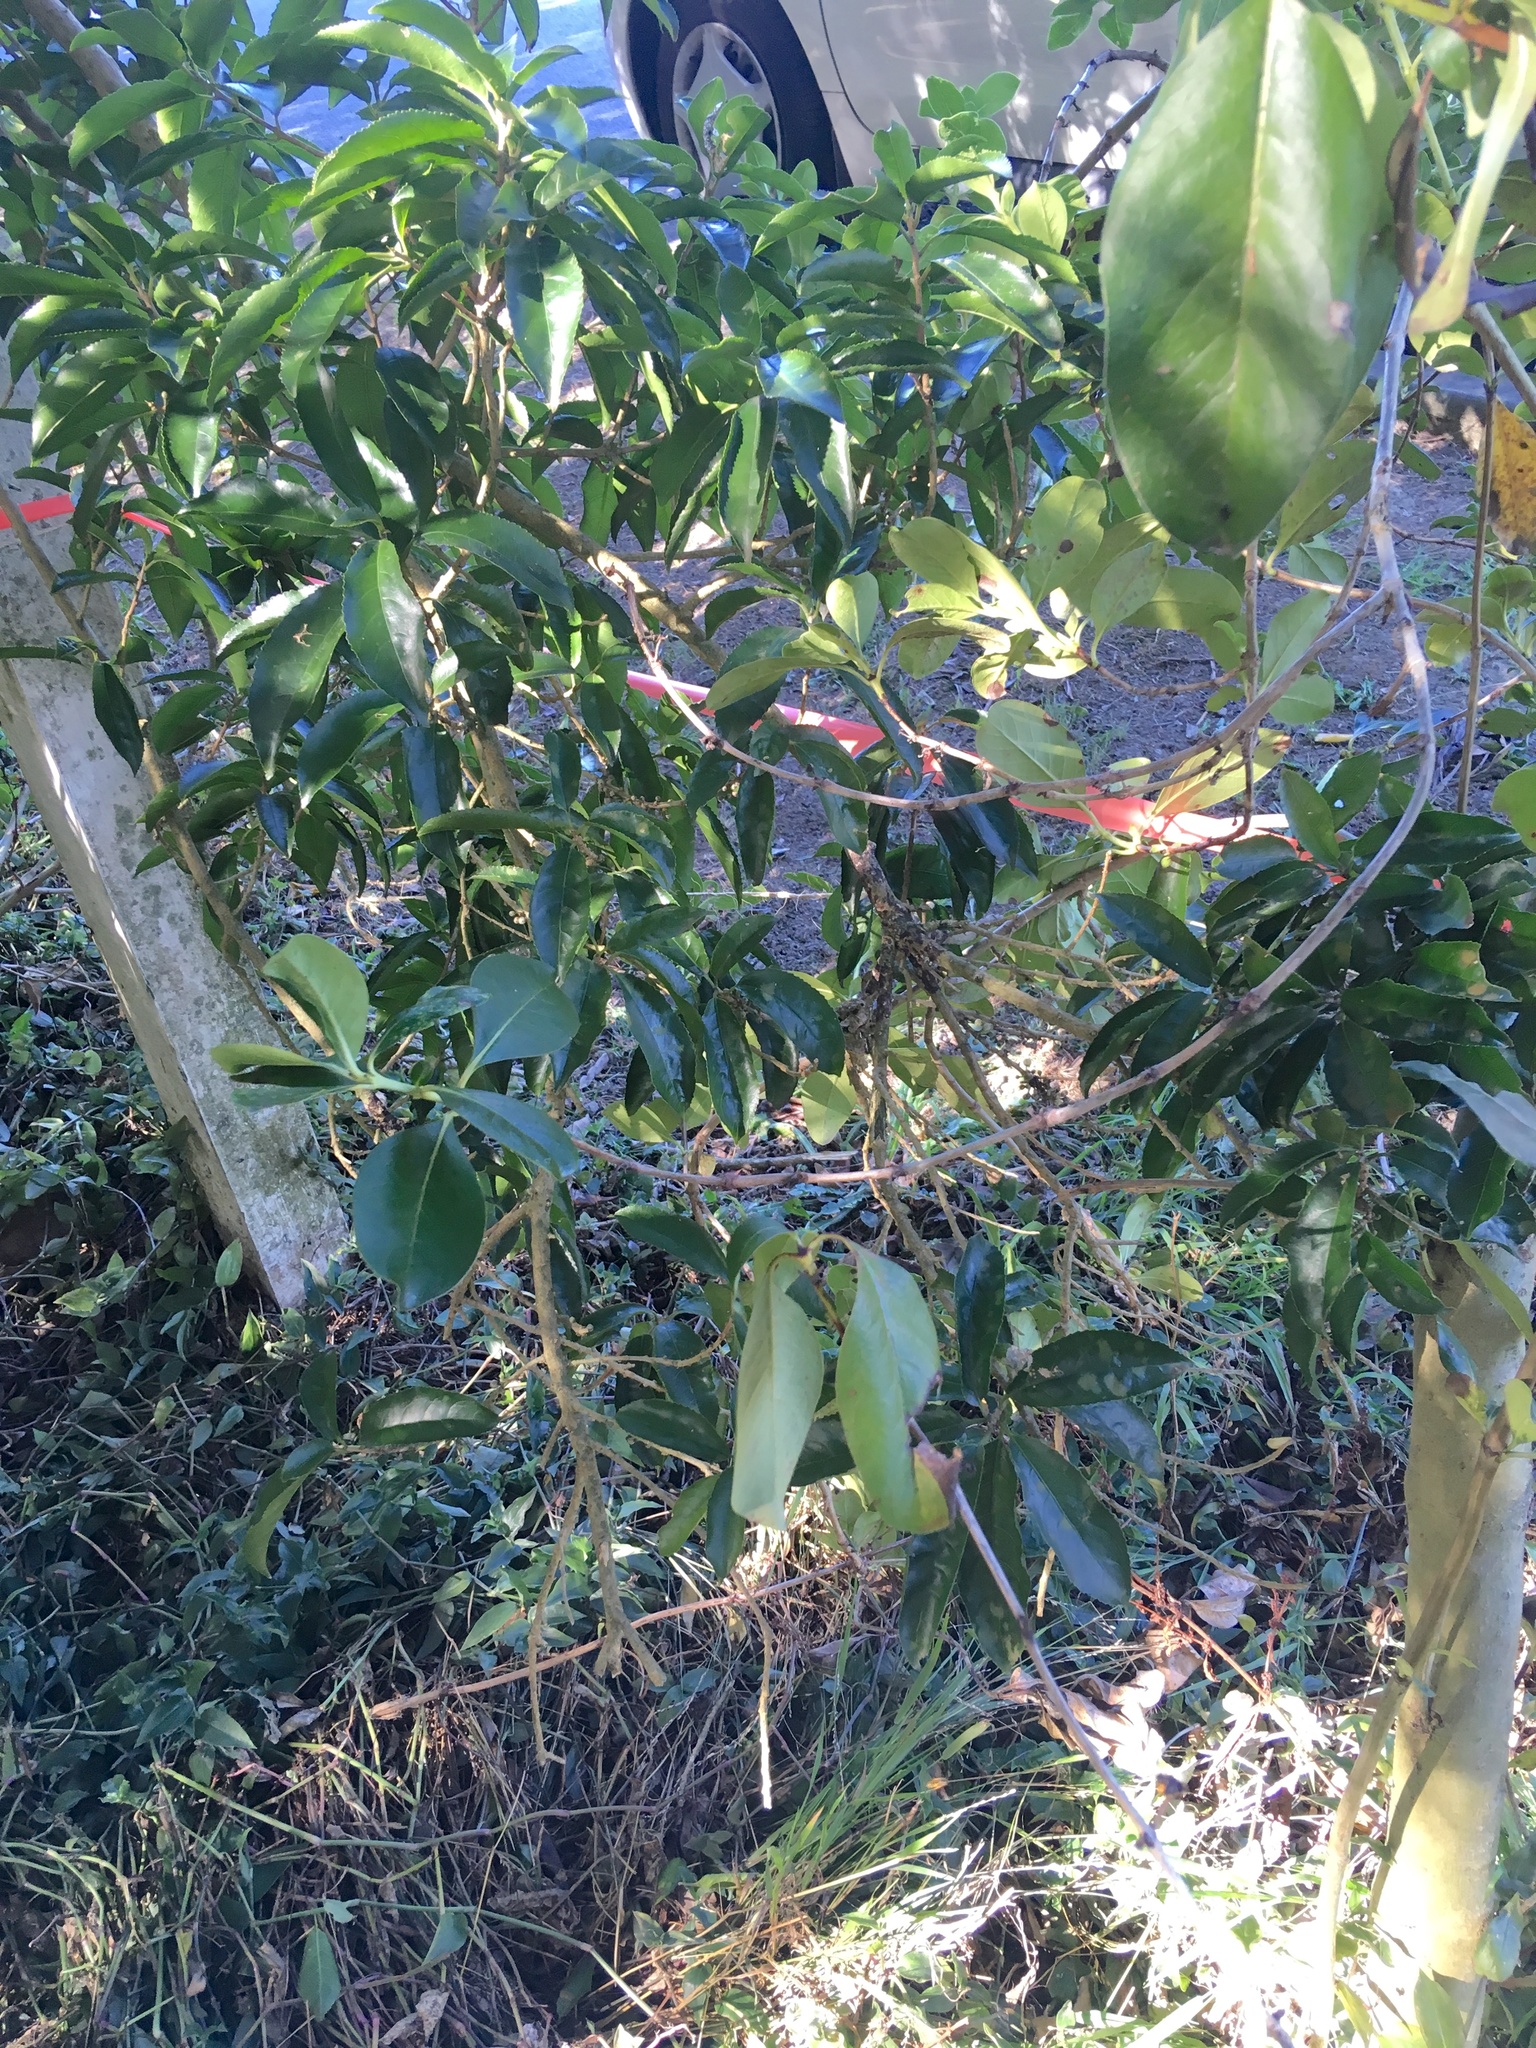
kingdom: Plantae
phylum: Tracheophyta
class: Magnoliopsida
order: Malpighiales
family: Violaceae
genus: Melicytus
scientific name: Melicytus ramiflorus
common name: Mahoe
